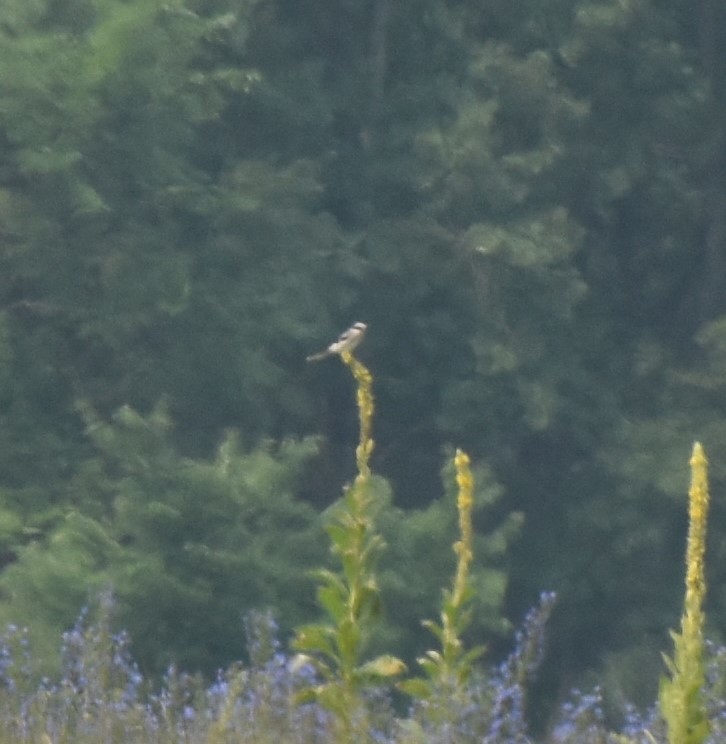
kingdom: Animalia
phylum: Chordata
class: Aves
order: Passeriformes
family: Laniidae
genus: Lanius
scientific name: Lanius ludovicianus
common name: Loggerhead shrike
